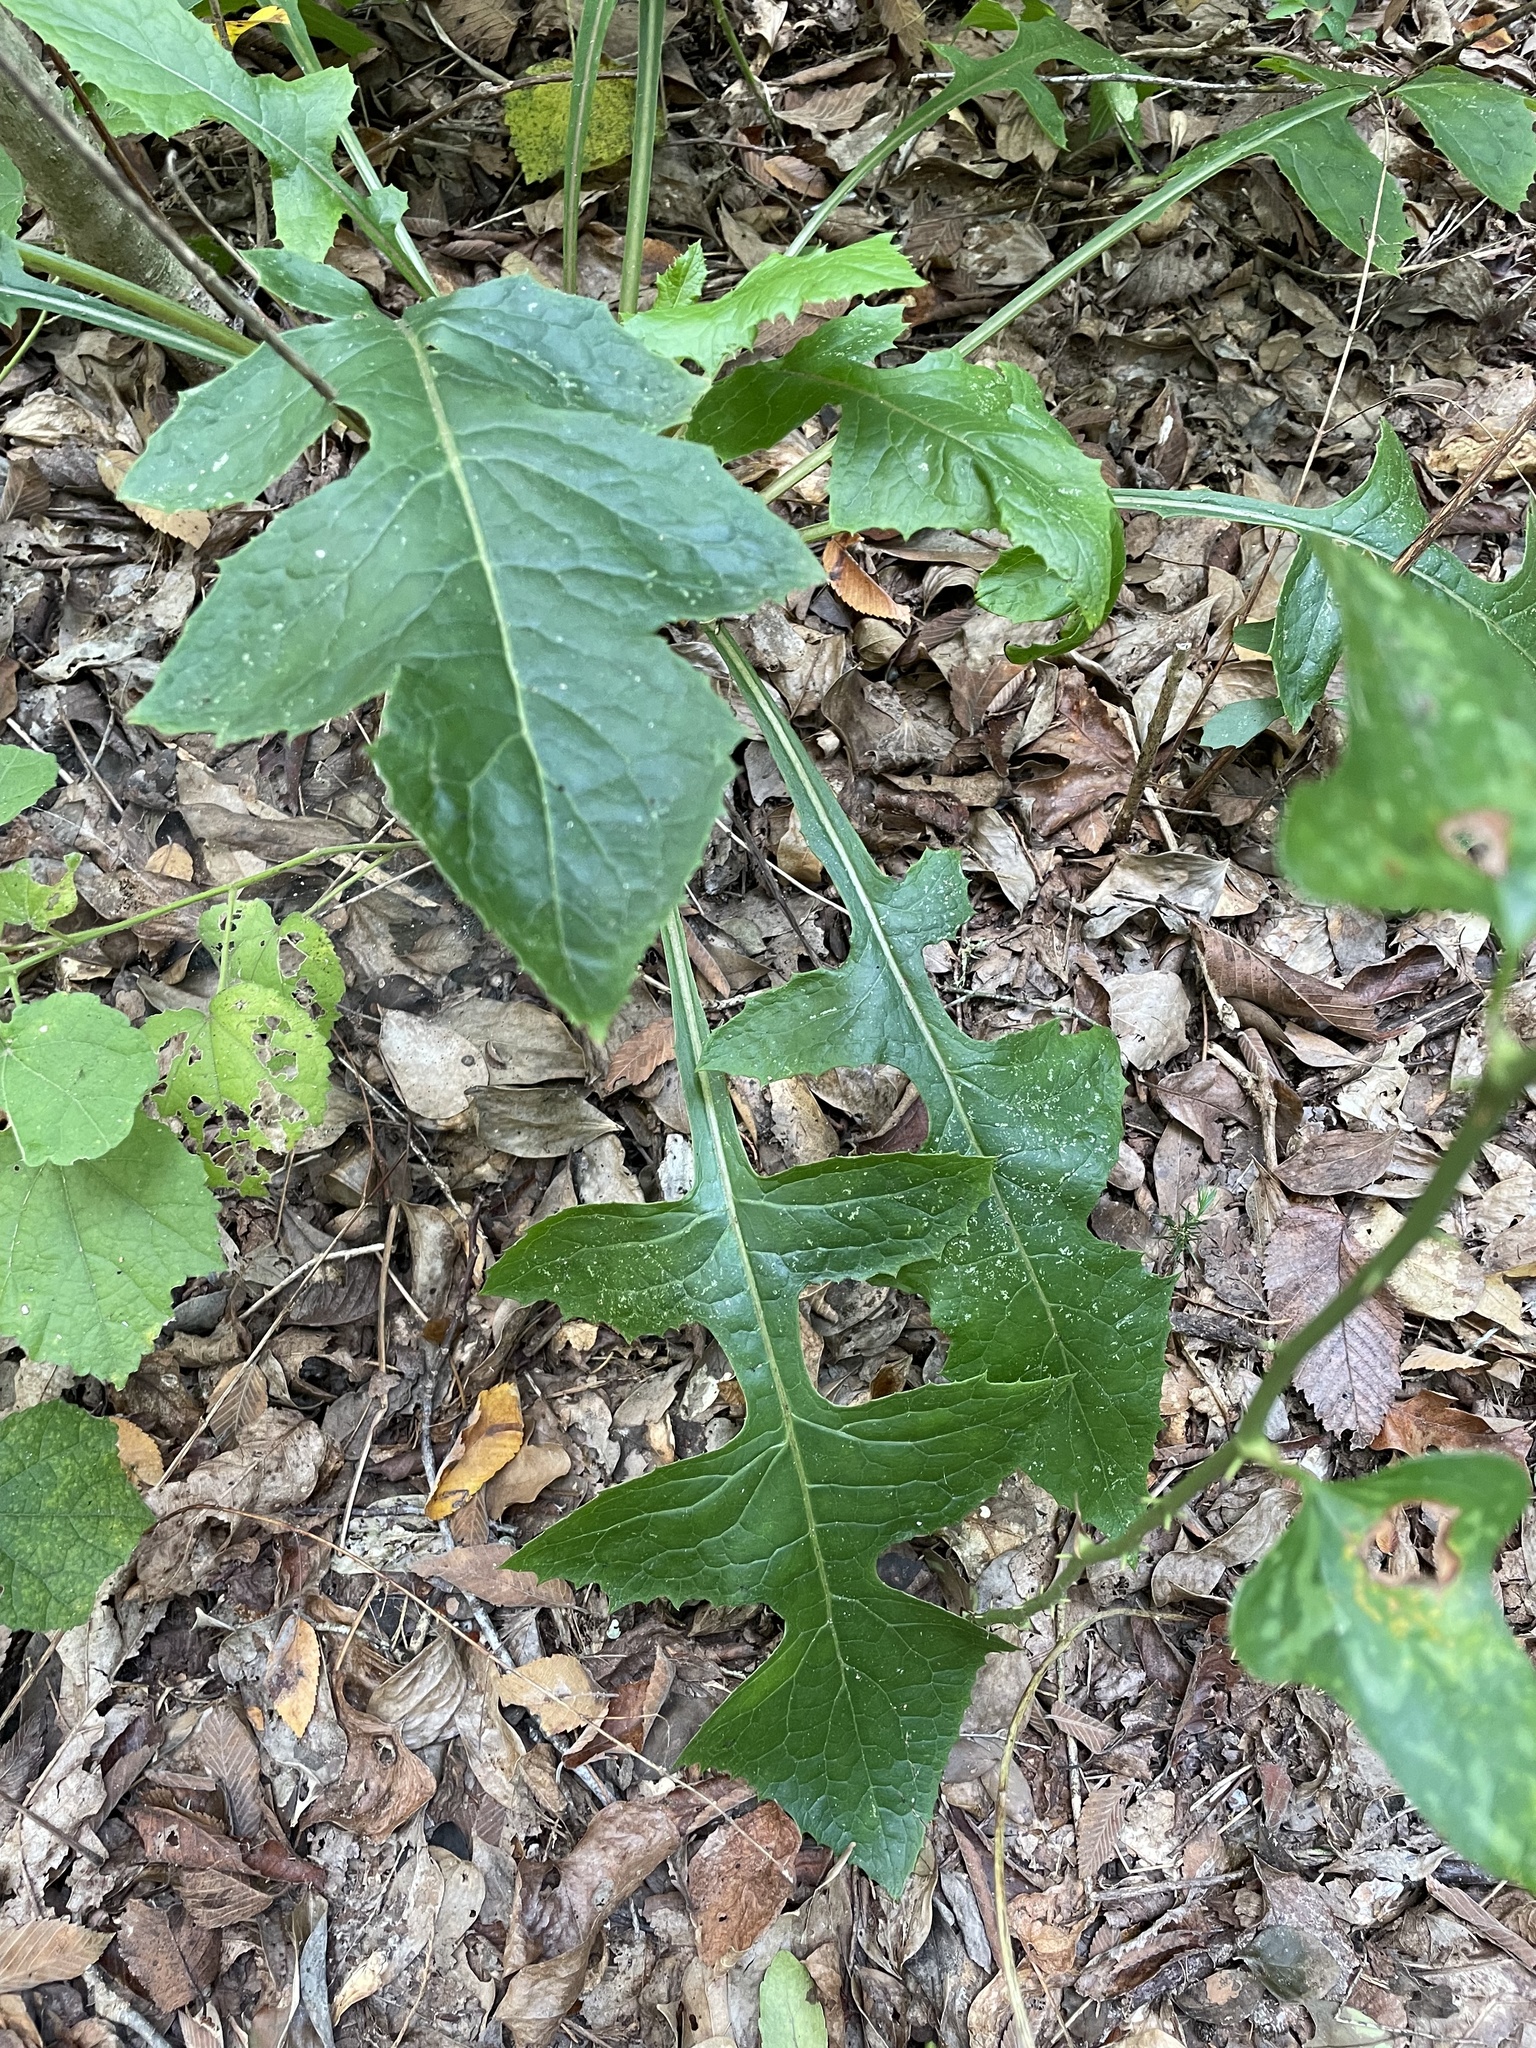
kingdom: Plantae
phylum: Tracheophyta
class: Magnoliopsida
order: Asterales
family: Asteraceae
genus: Lactuca
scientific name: Lactuca floridana
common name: Woodland lettuce
